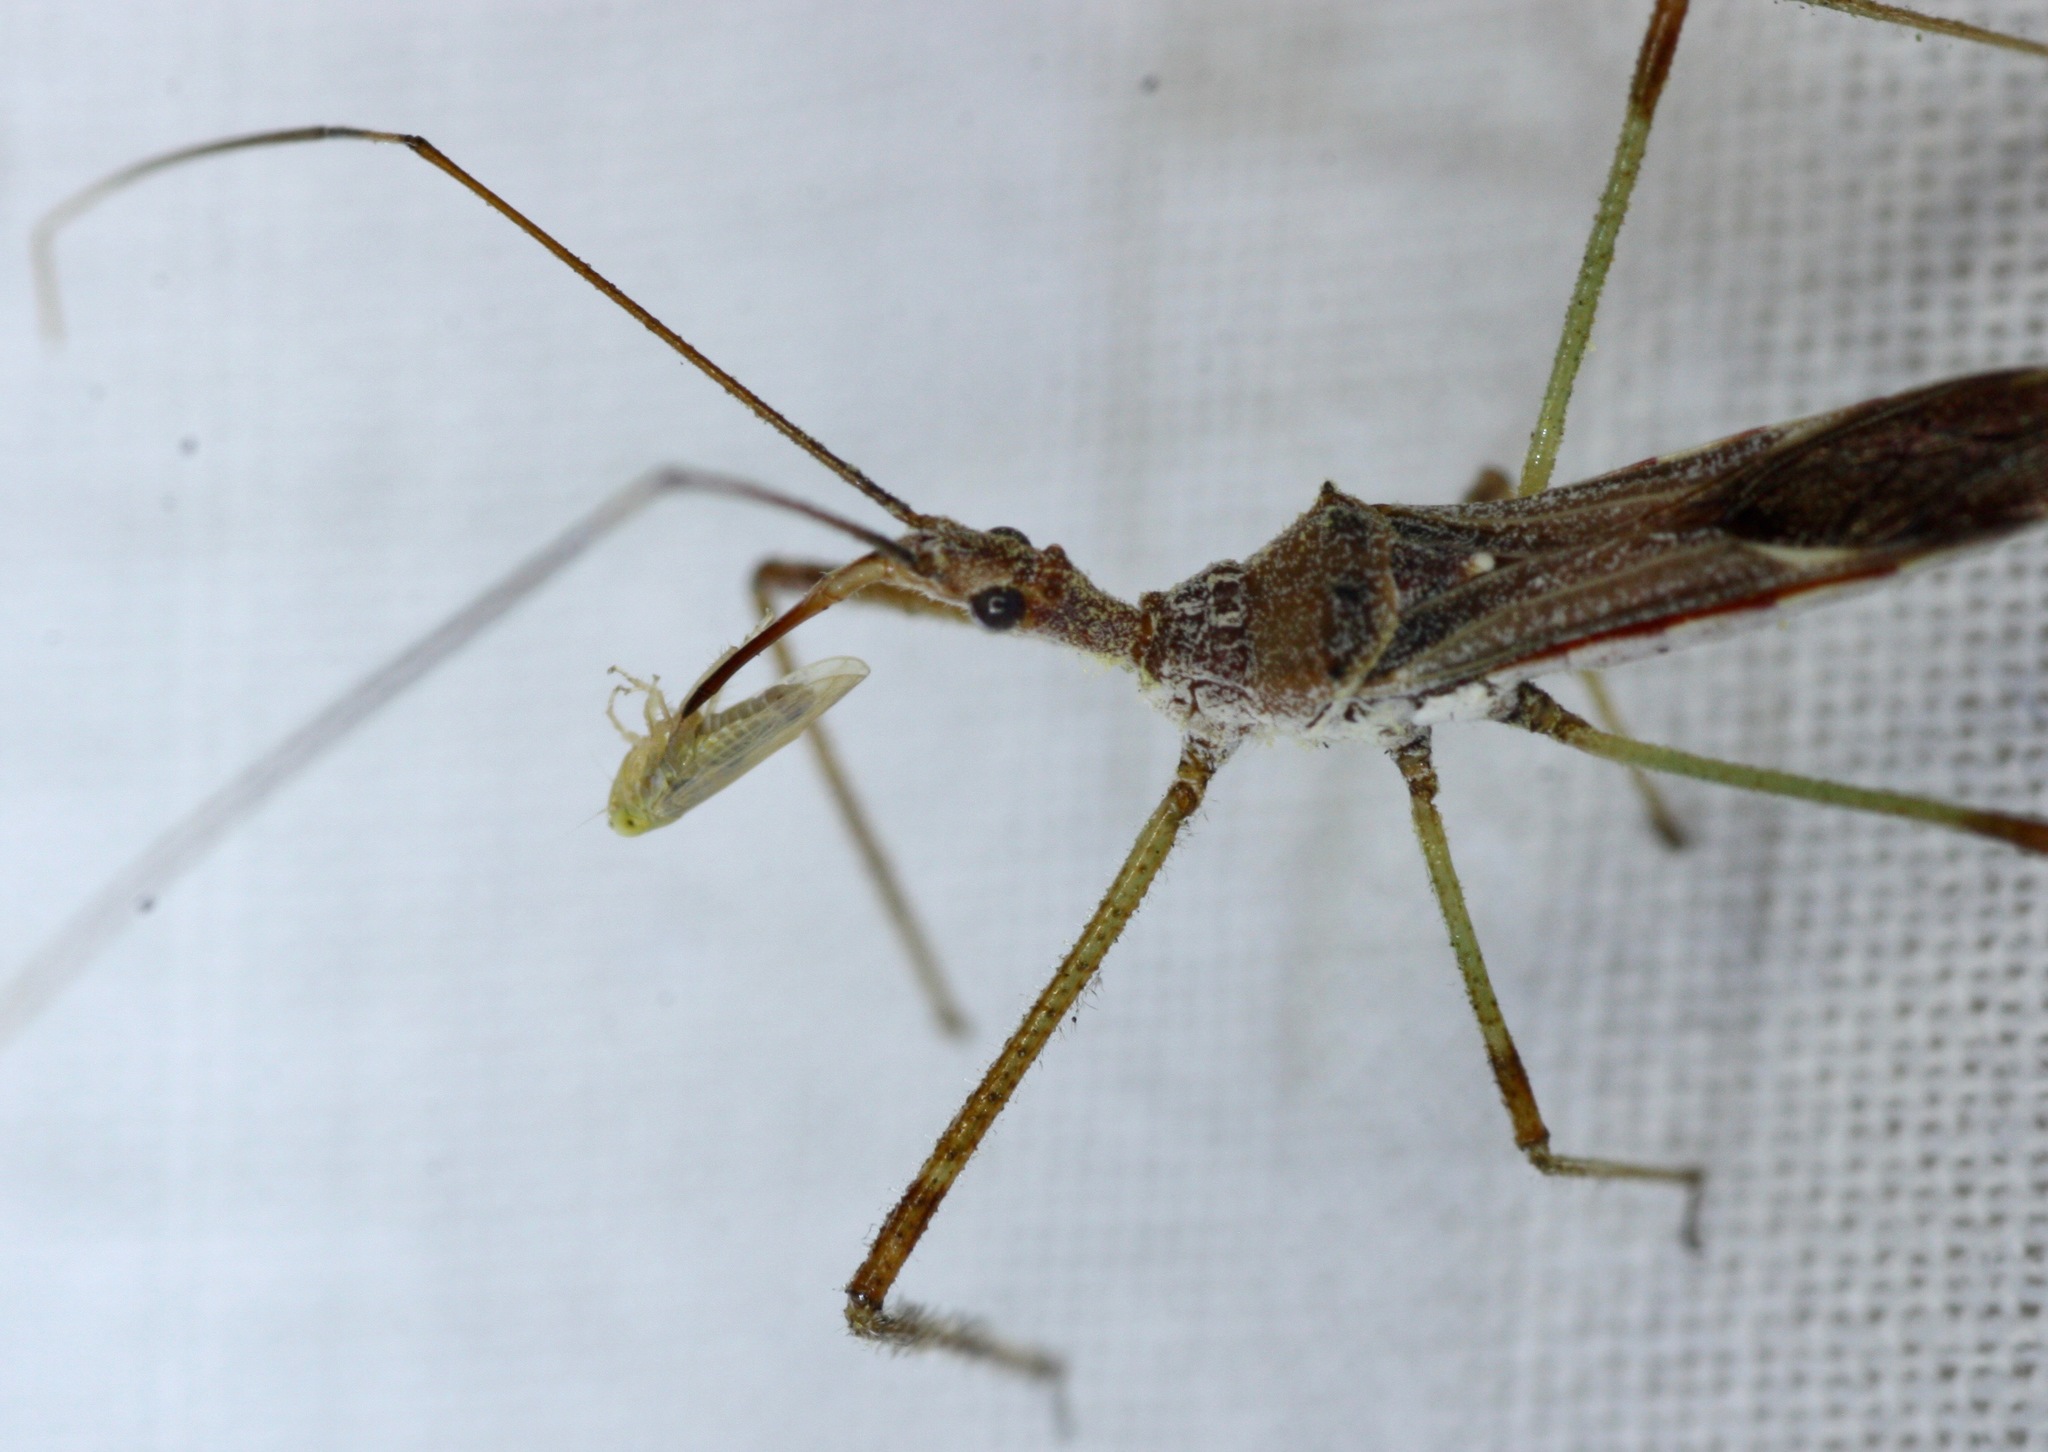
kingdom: Animalia
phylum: Arthropoda
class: Insecta
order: Hemiptera
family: Reduviidae
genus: Zelus
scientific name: Zelus tetracanthus
